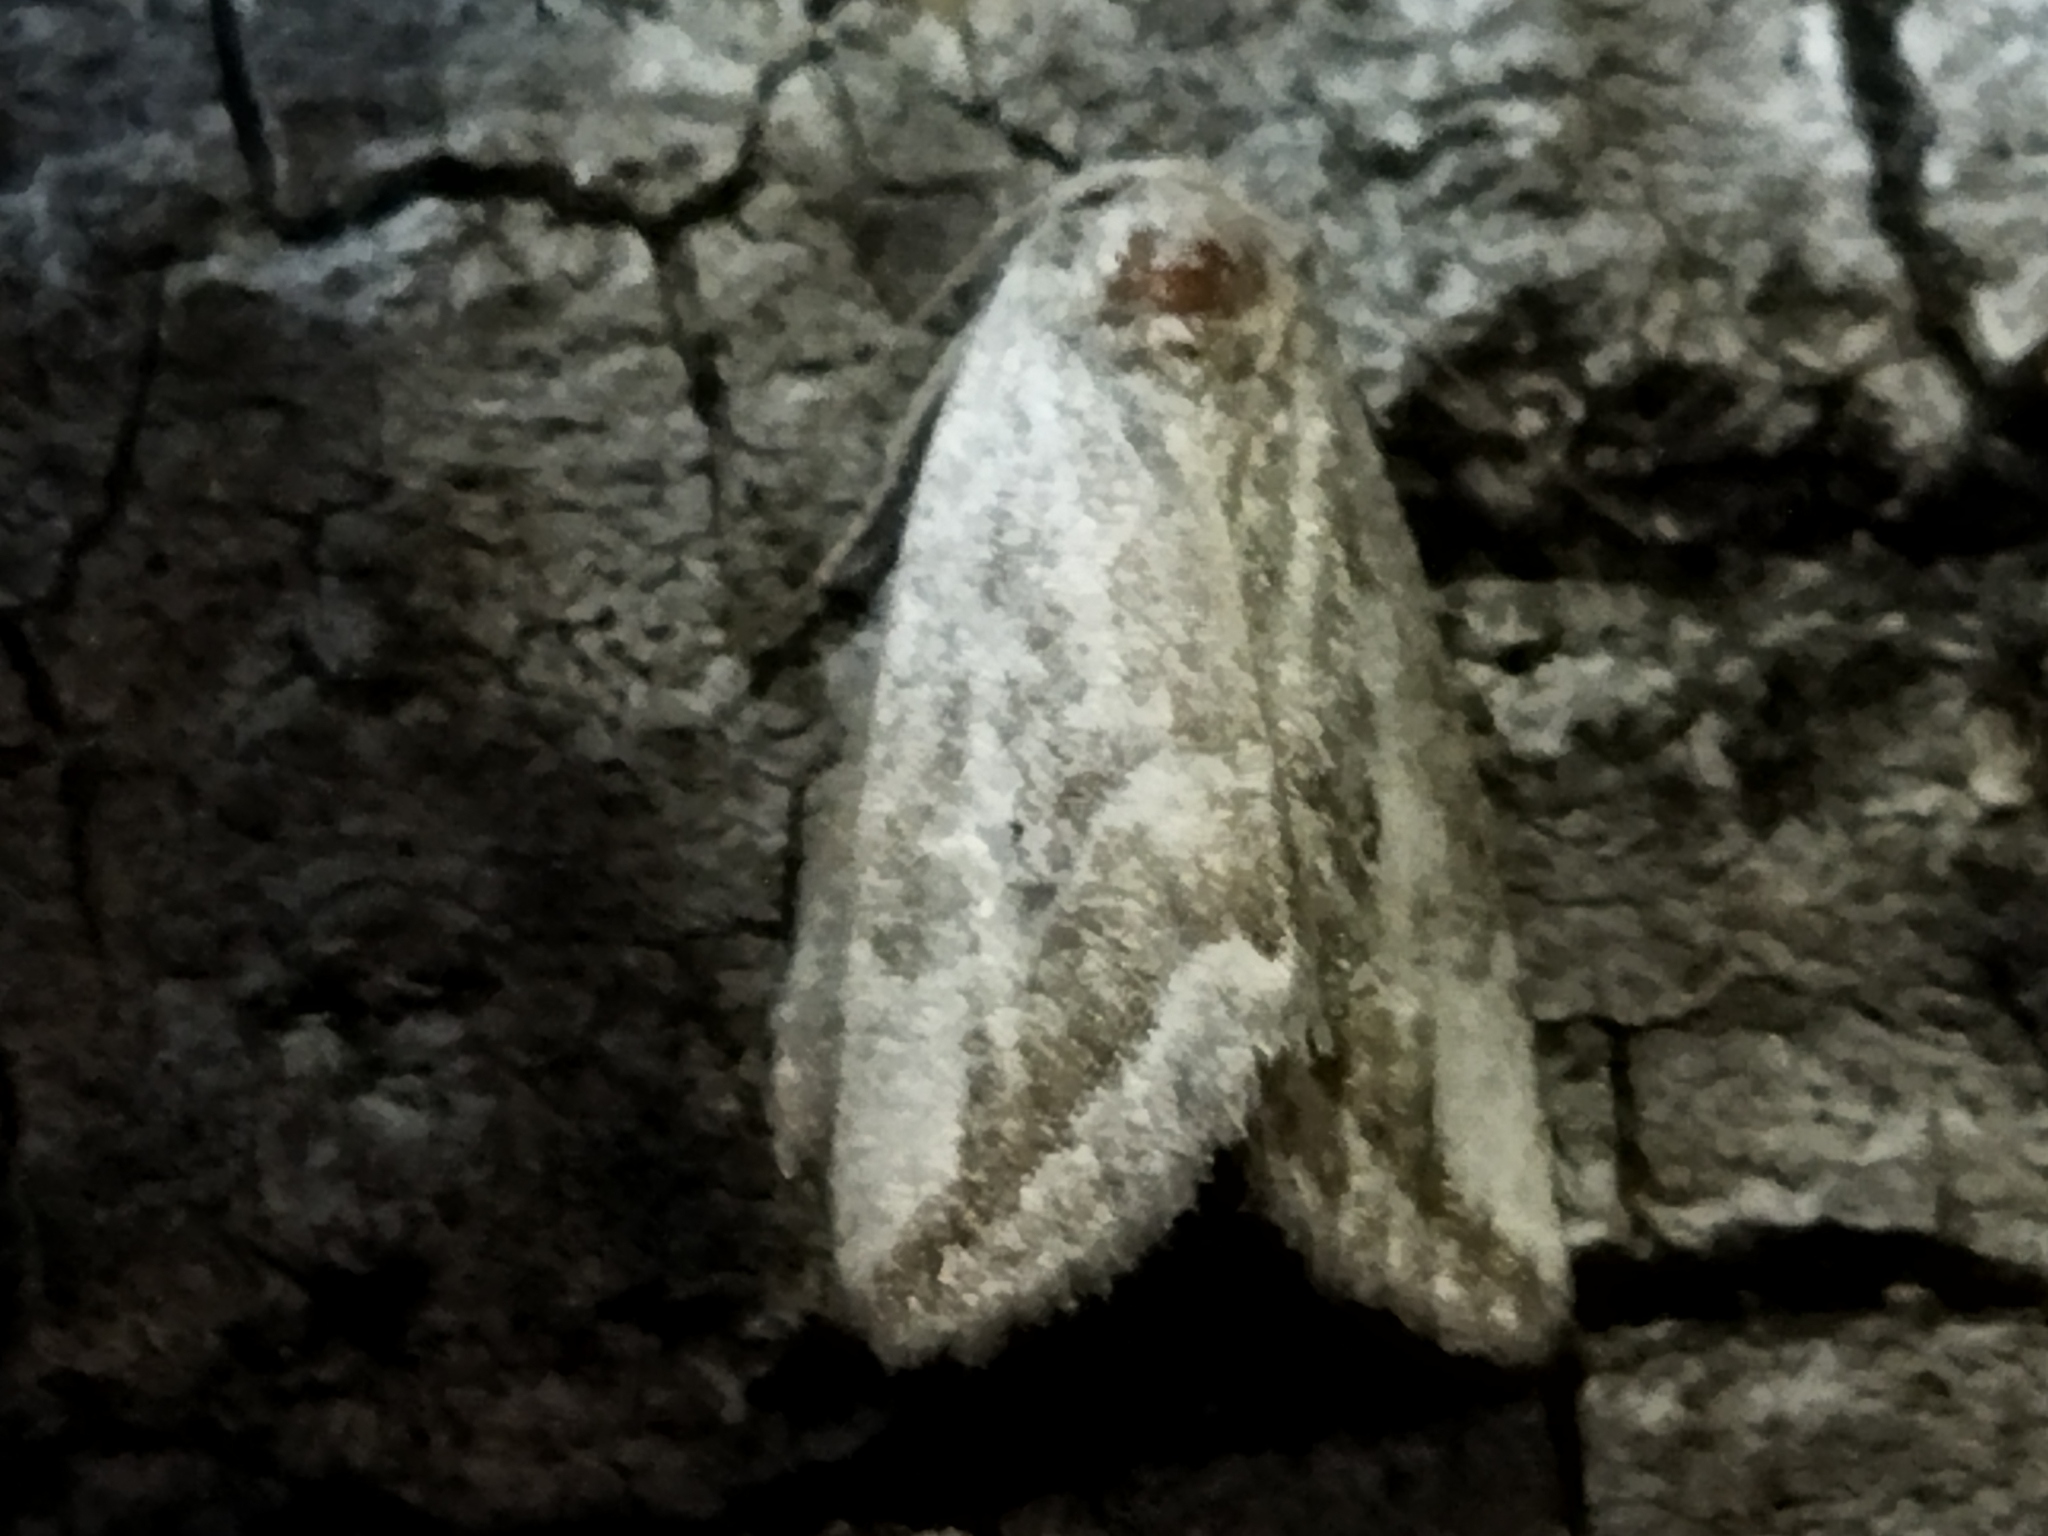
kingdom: Animalia
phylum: Arthropoda
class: Insecta
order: Lepidoptera
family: Noctuidae
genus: Phyllophila
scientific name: Phyllophila obliterata
